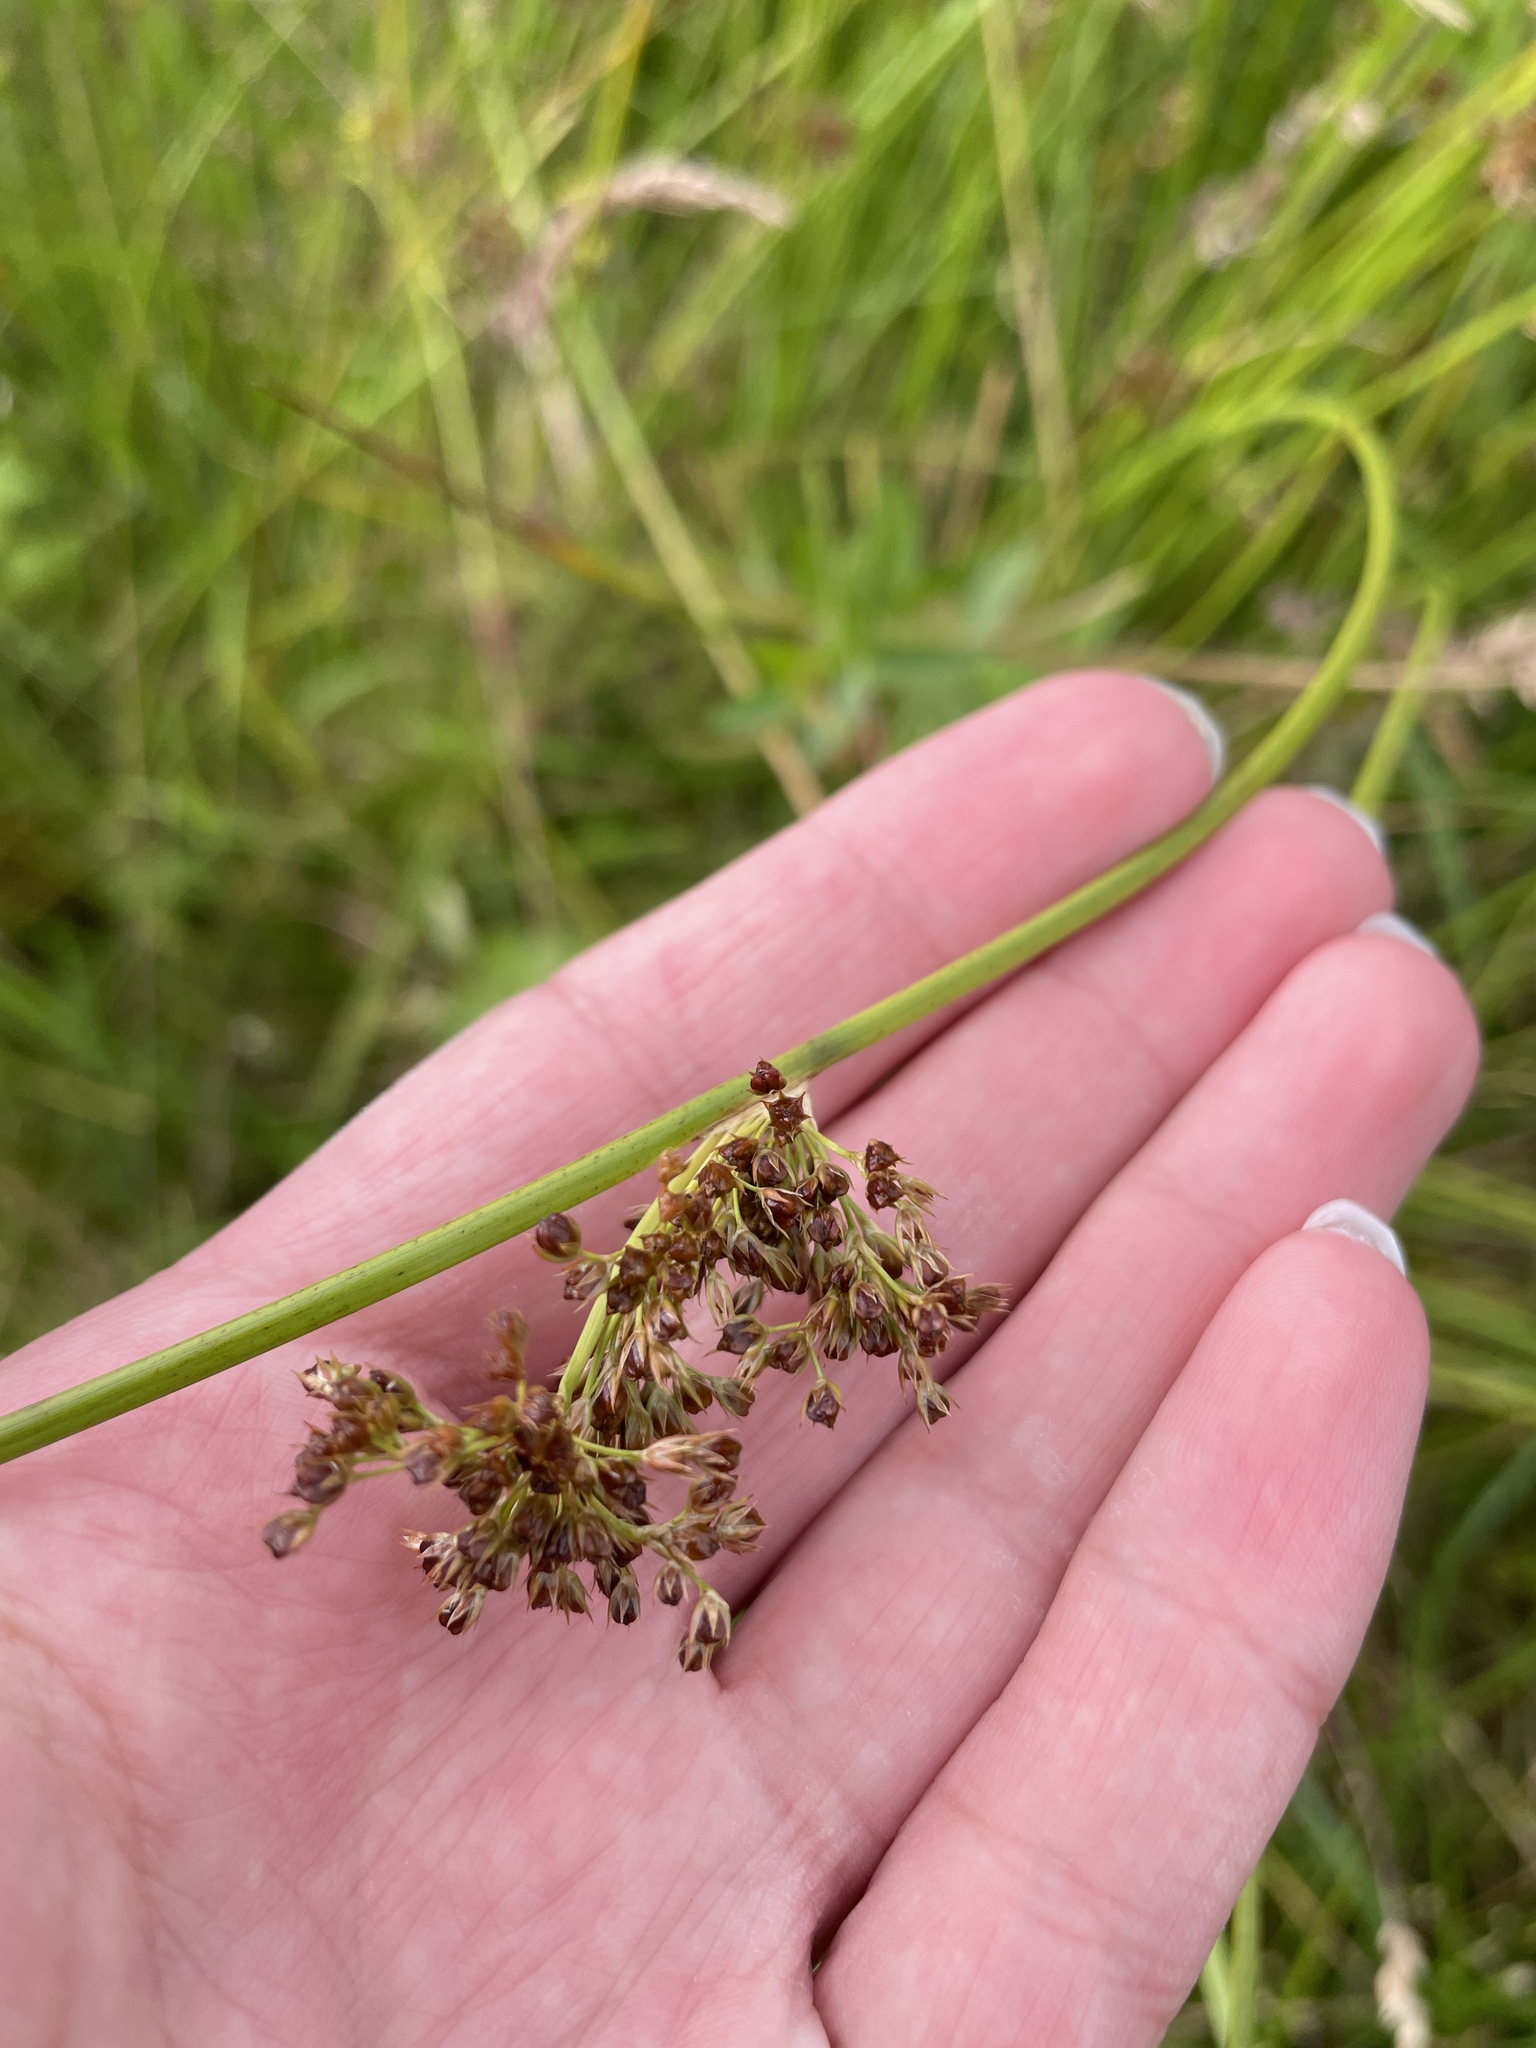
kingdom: Plantae
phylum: Tracheophyta
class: Liliopsida
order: Poales
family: Juncaceae
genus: Juncus
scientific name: Juncus effusus
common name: Soft rush
